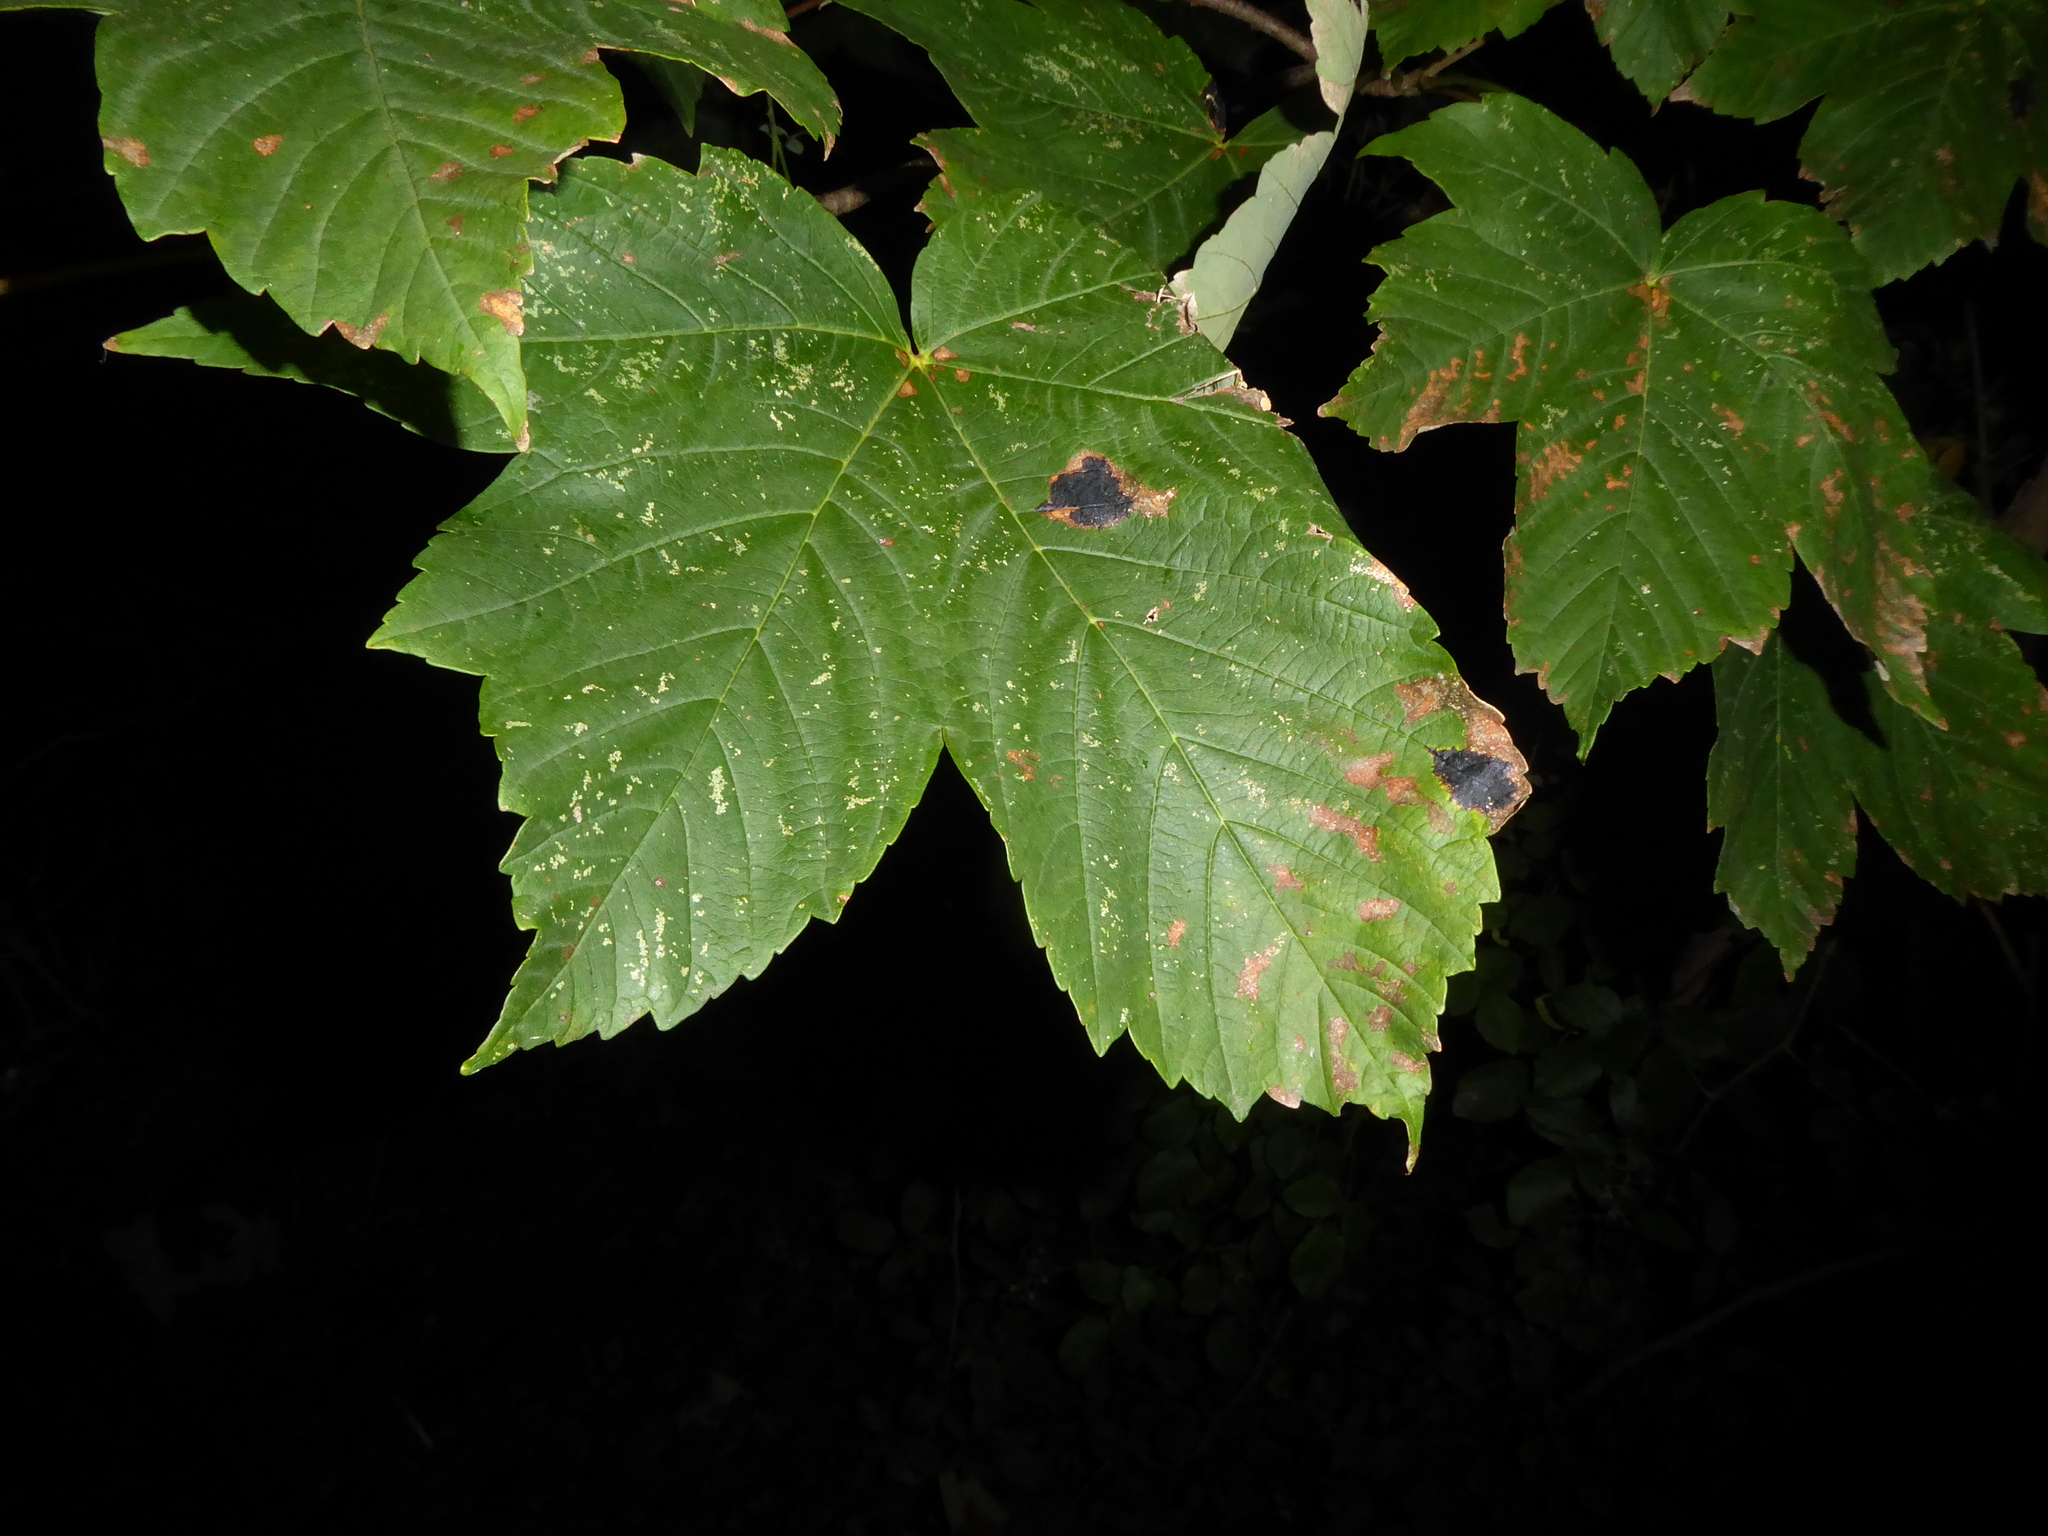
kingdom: Fungi
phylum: Ascomycota
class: Leotiomycetes
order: Rhytismatales
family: Rhytismataceae
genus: Rhytisma
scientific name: Rhytisma acerinum
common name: European tar spot
